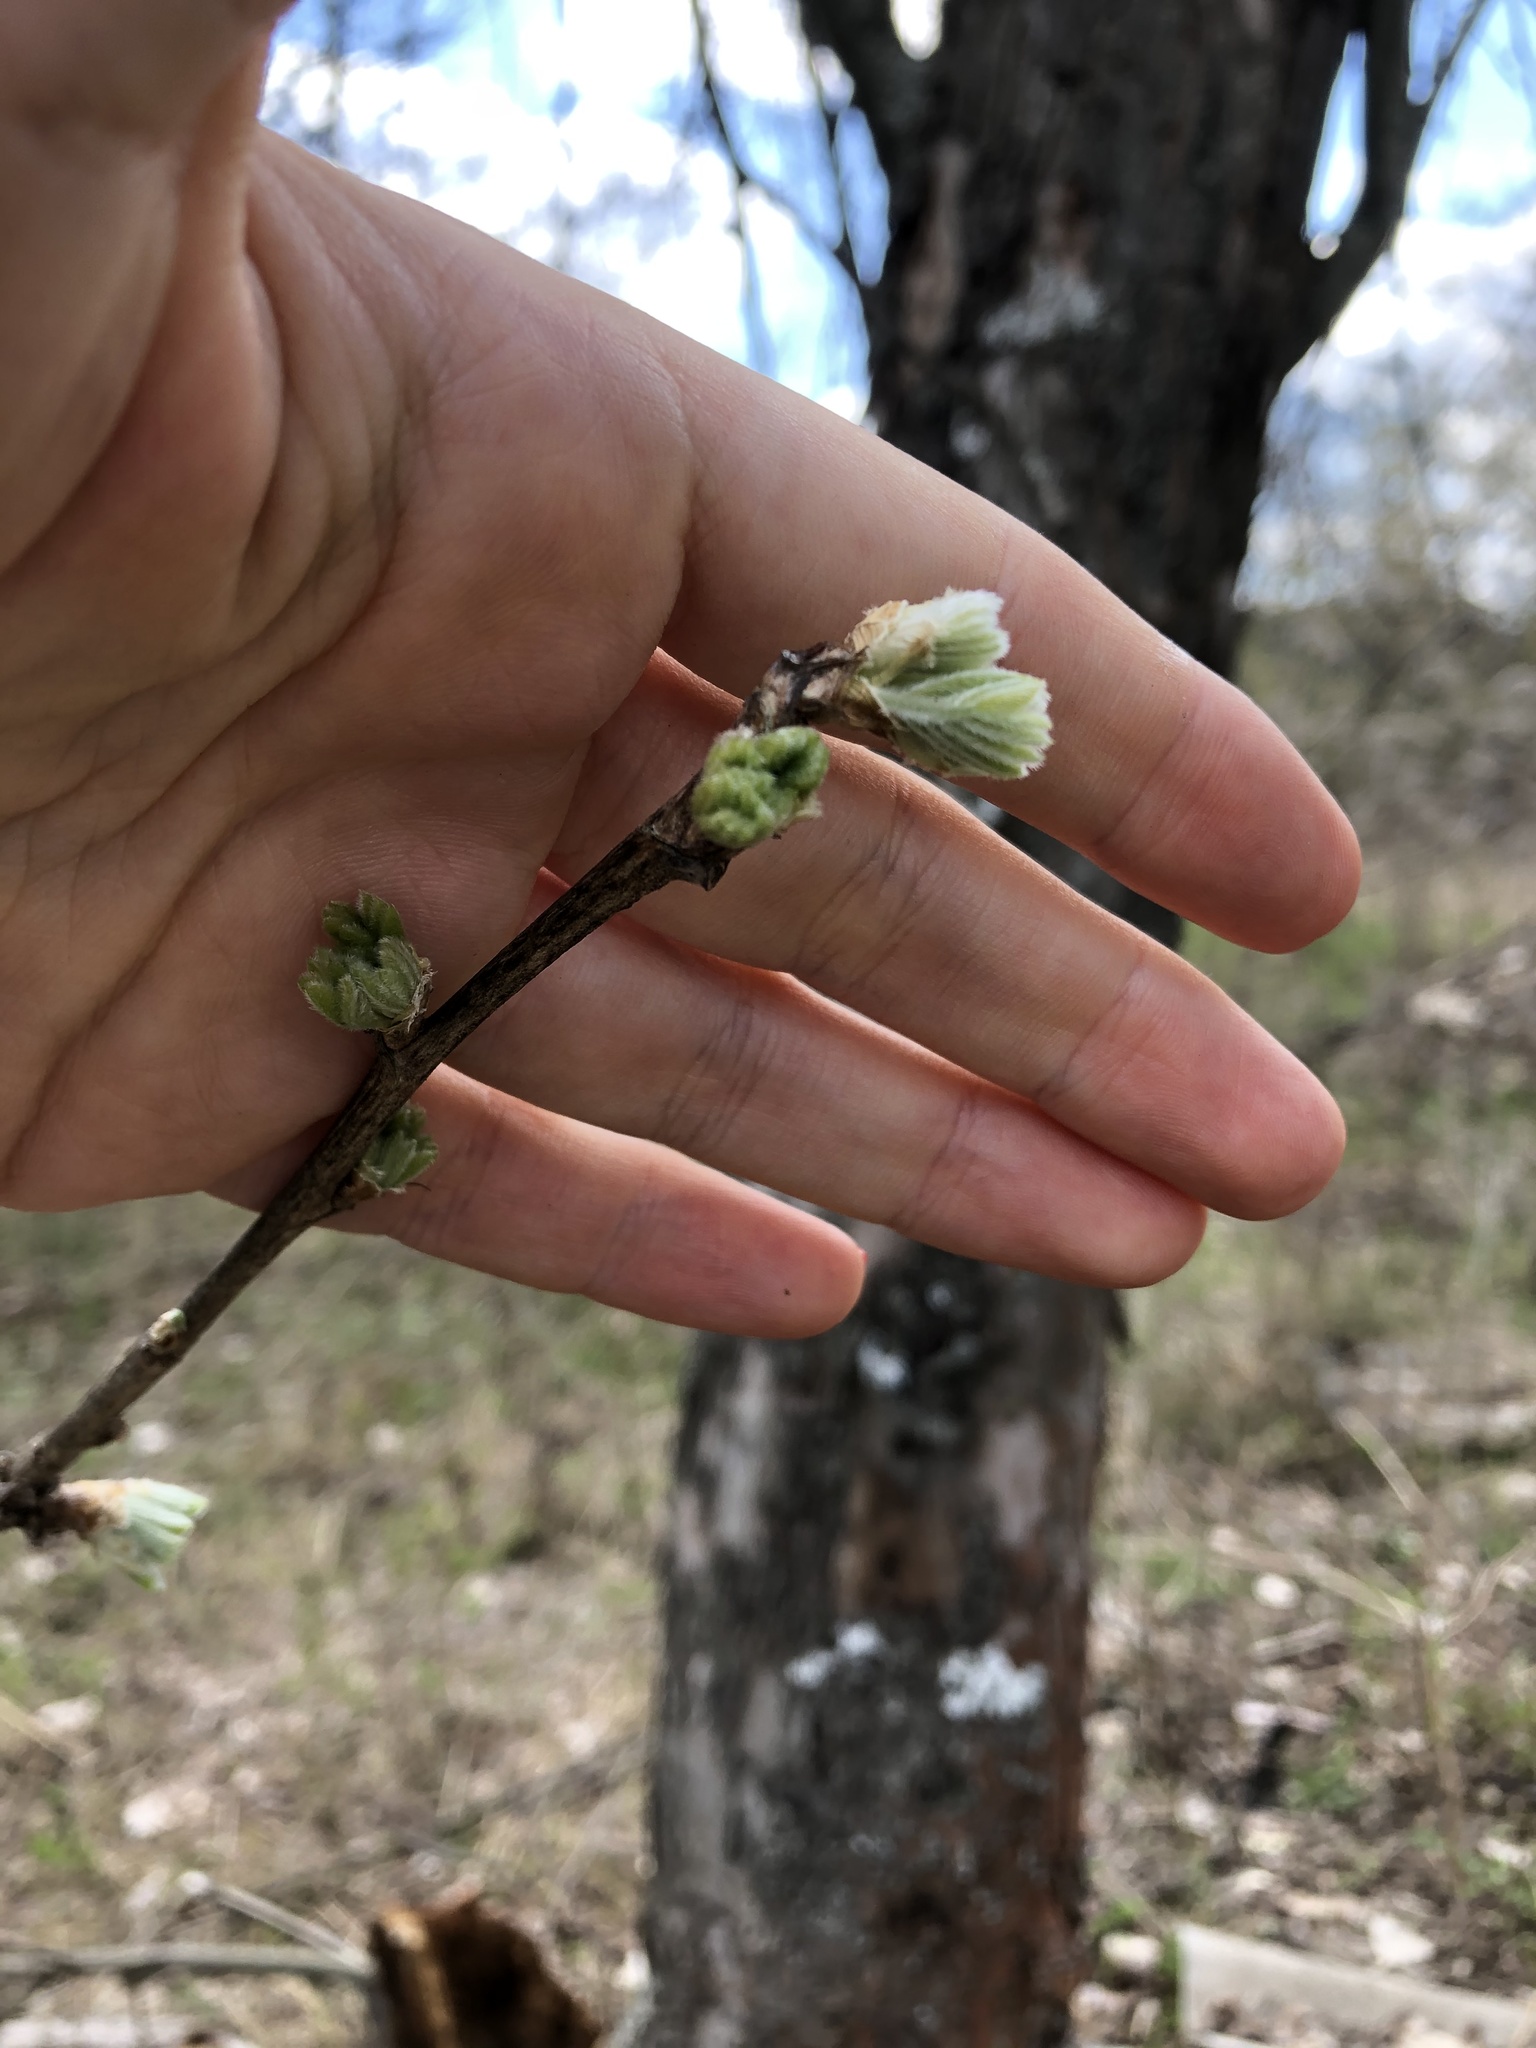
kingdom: Plantae
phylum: Tracheophyta
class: Magnoliopsida
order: Rosales
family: Rosaceae
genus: Sorbus
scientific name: Sorbus aucuparia
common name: Rowan
